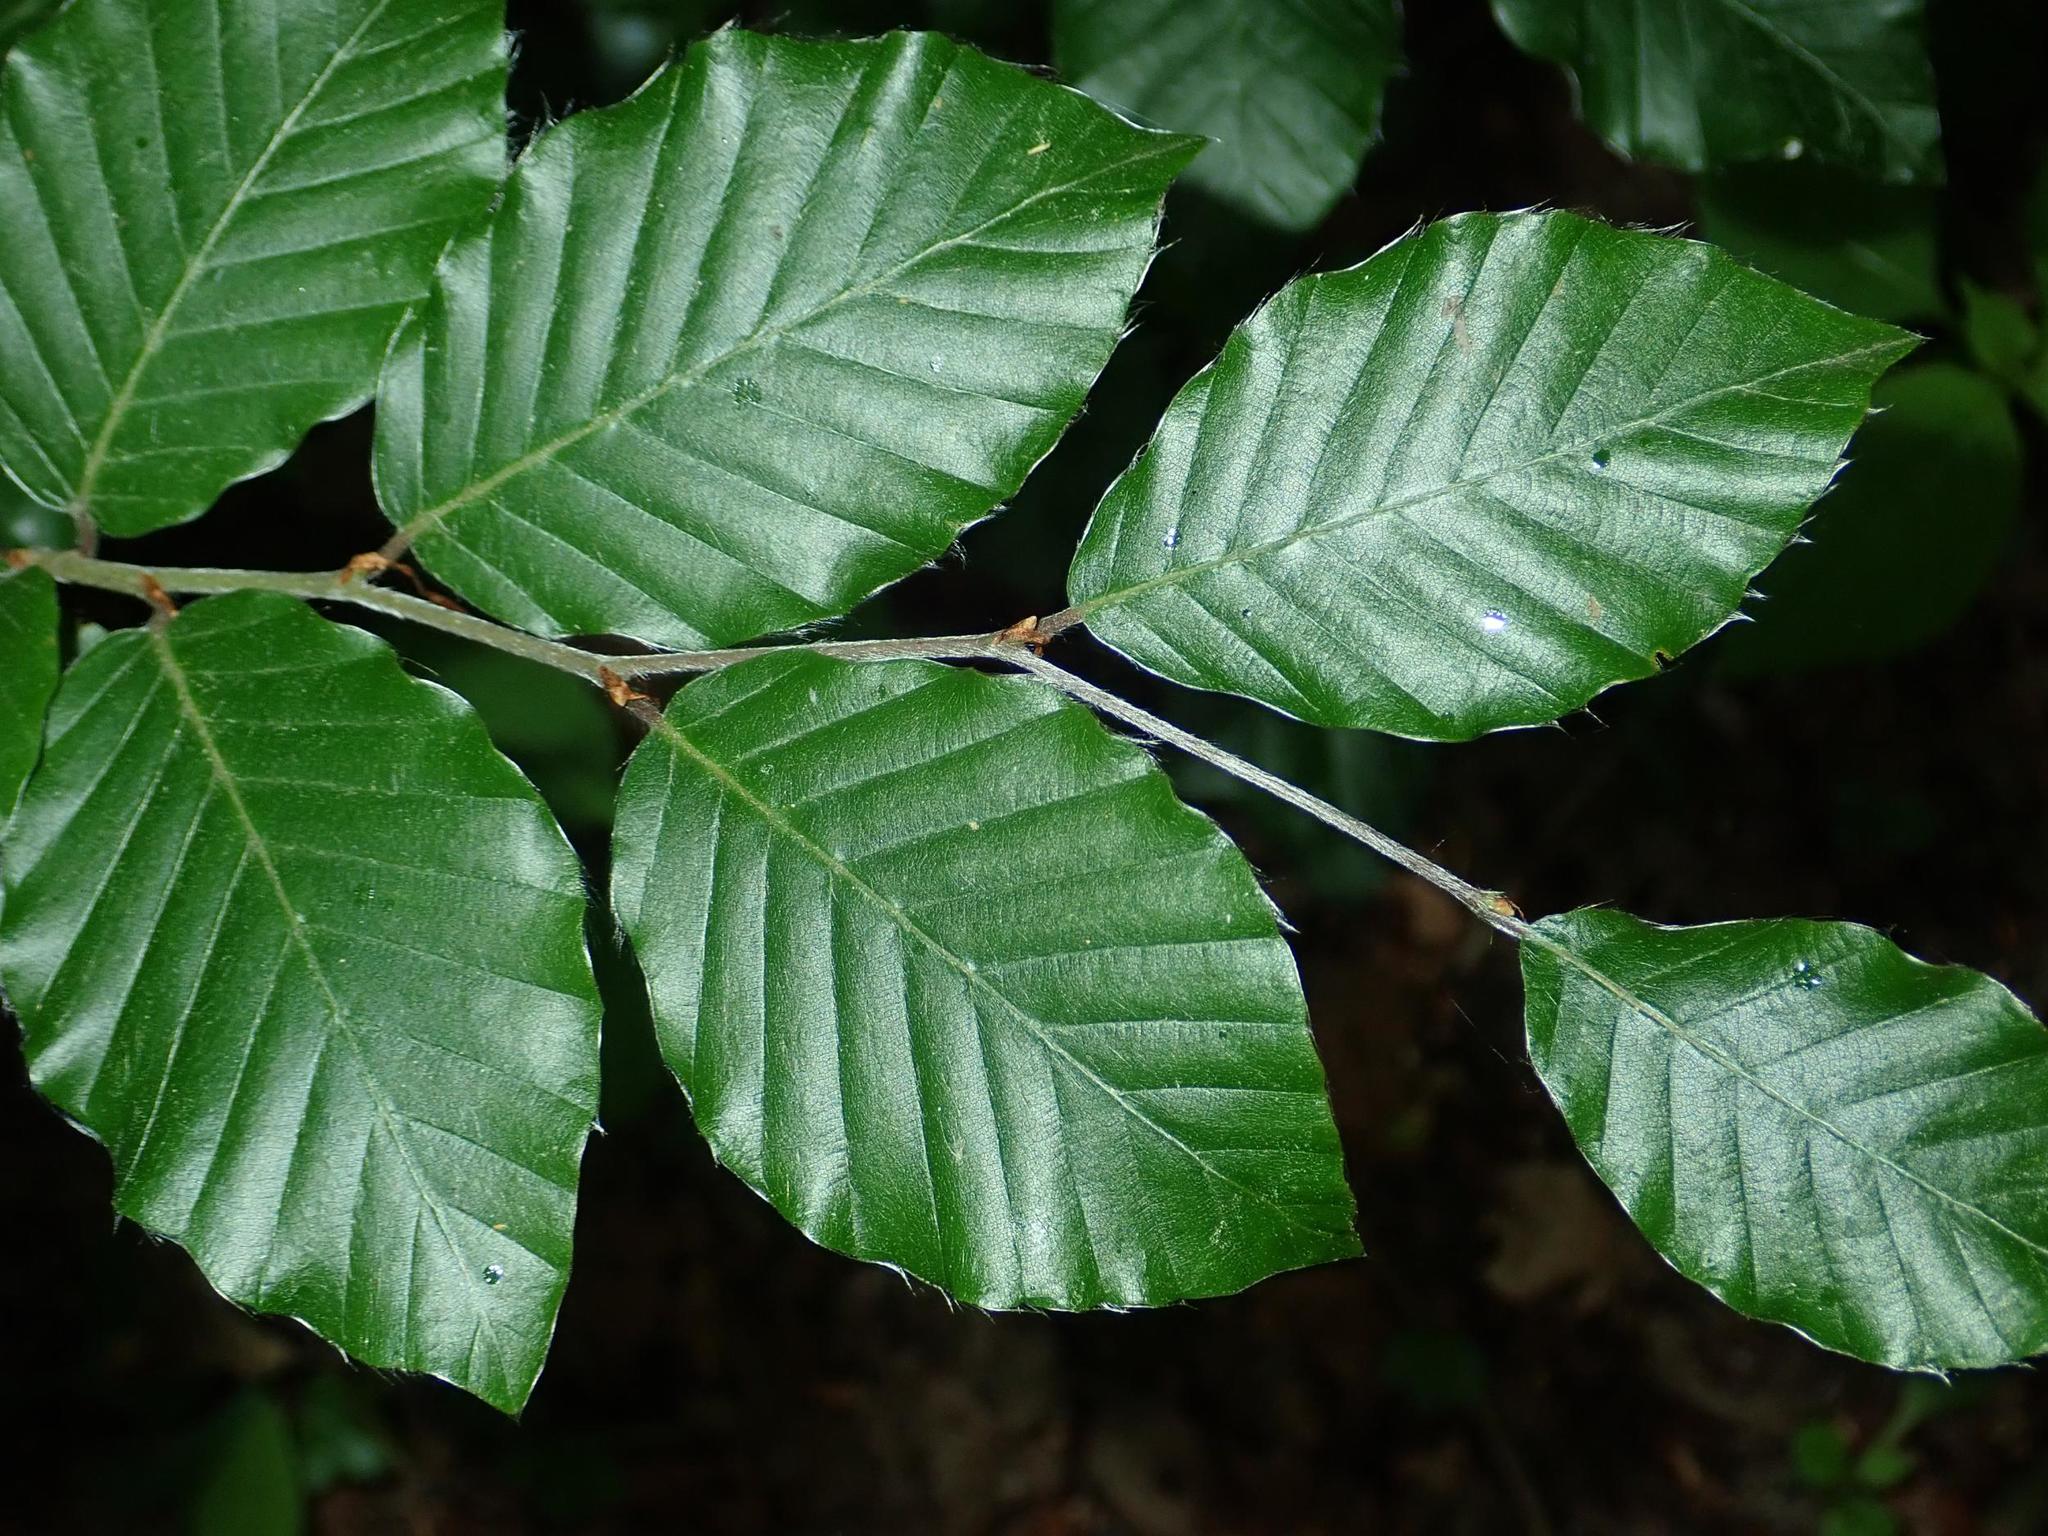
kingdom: Plantae
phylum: Tracheophyta
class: Magnoliopsida
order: Fagales
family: Fagaceae
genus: Fagus
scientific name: Fagus sylvatica
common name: Beech
